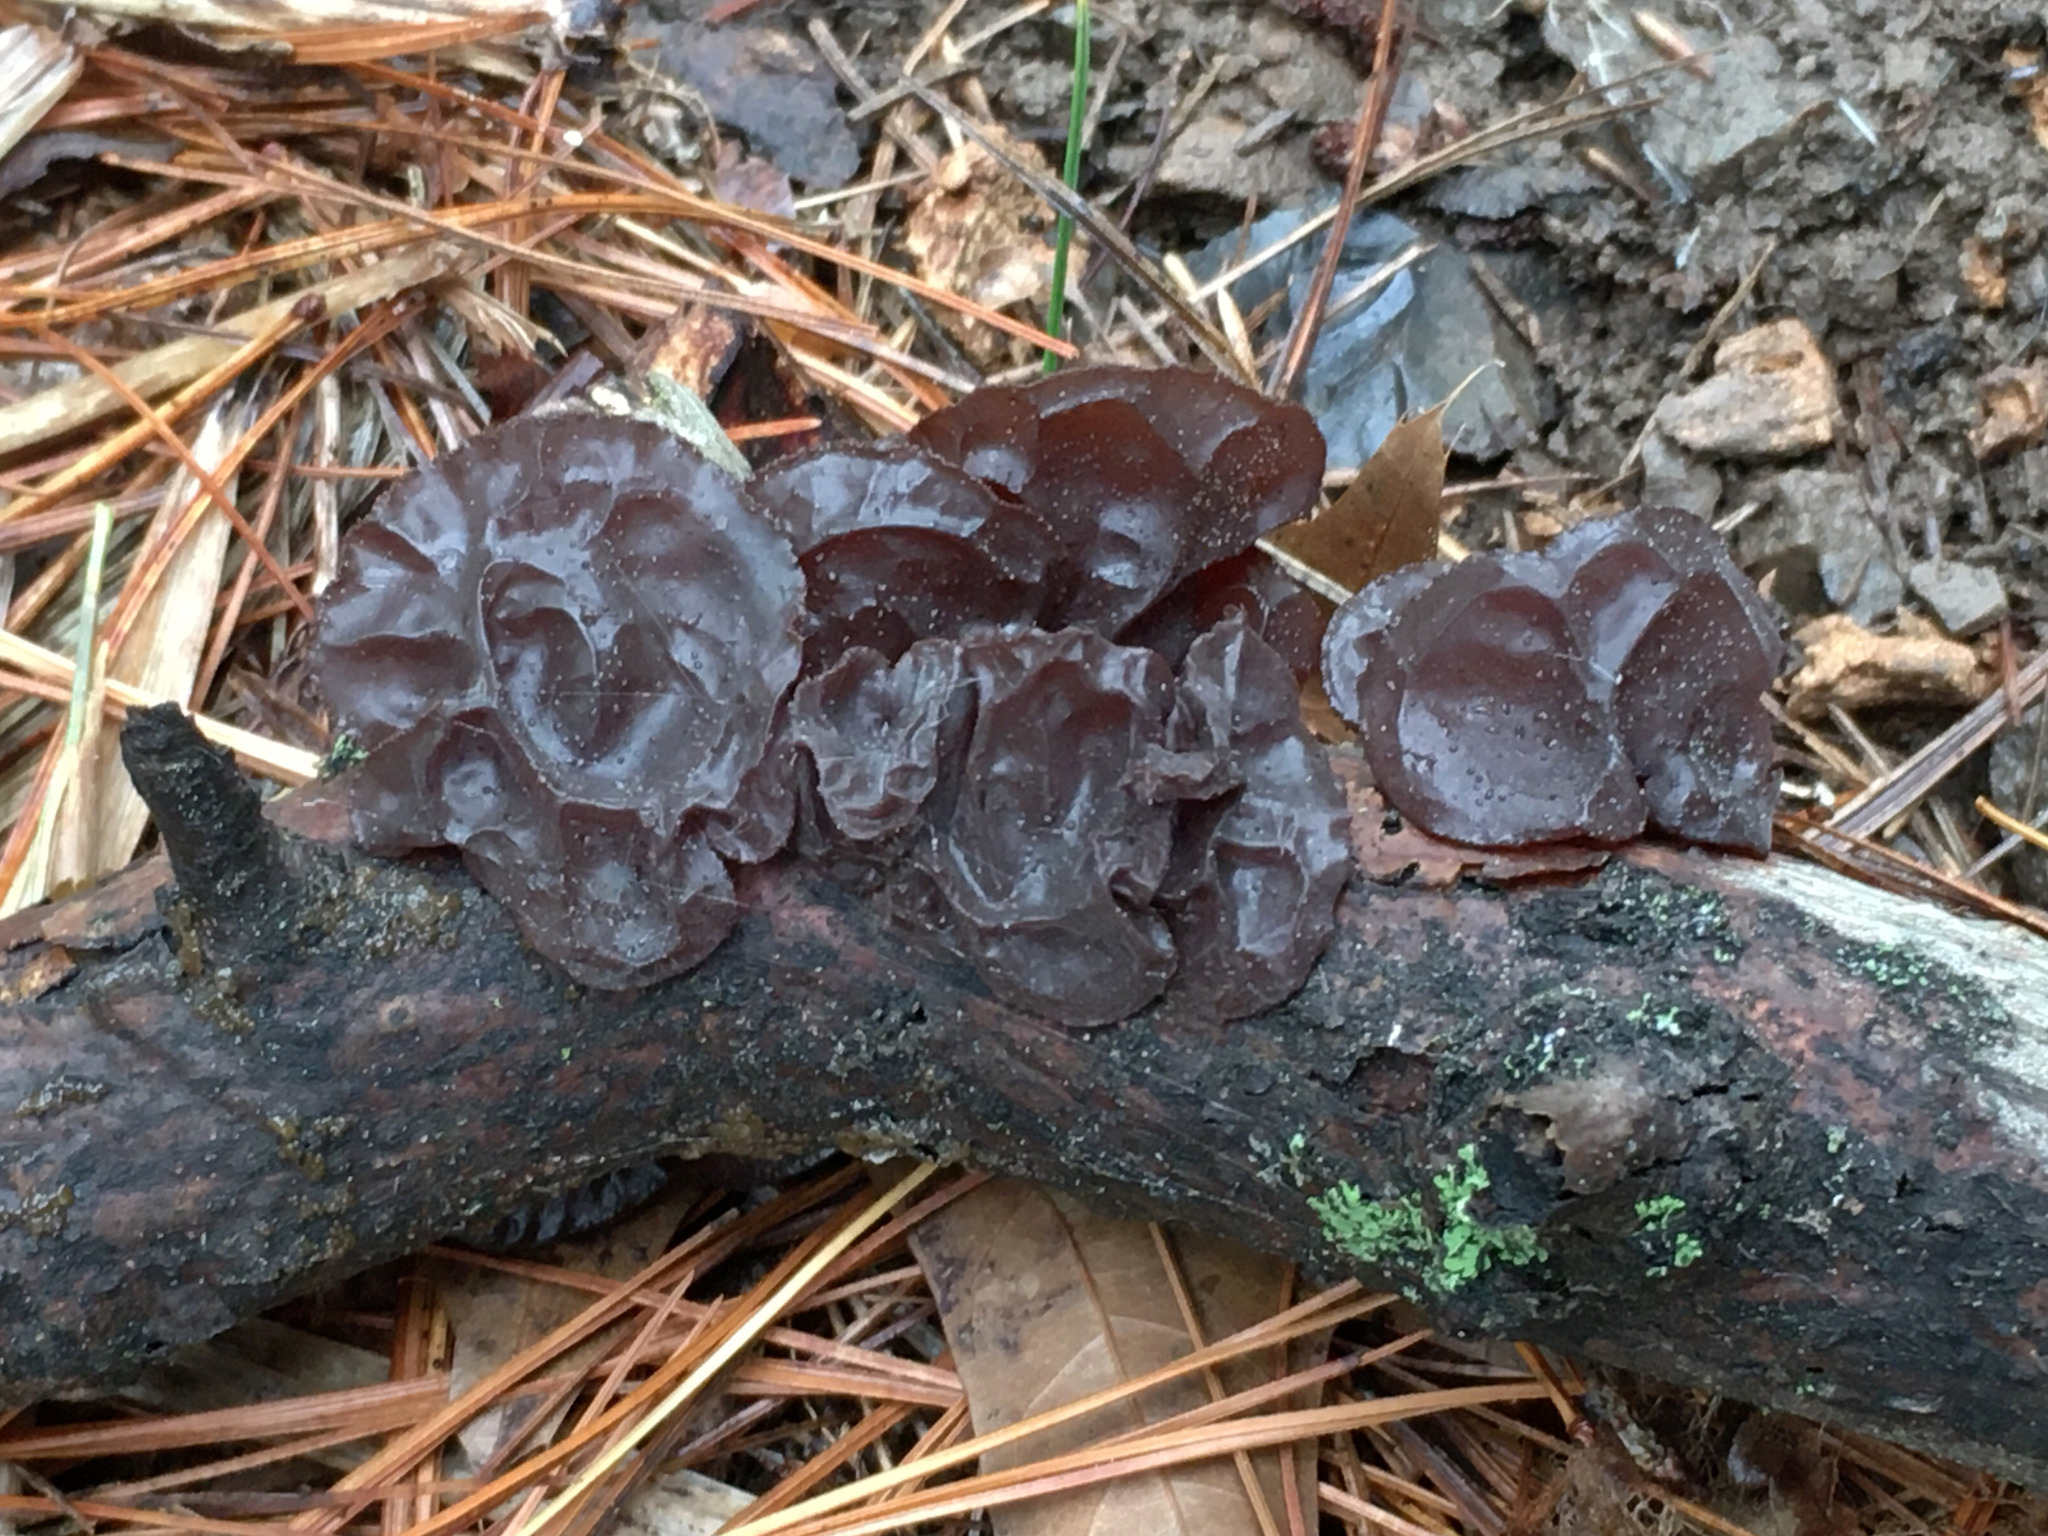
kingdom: Fungi
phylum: Basidiomycota
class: Agaricomycetes
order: Auriculariales
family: Auriculariaceae
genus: Exidia
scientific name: Exidia
